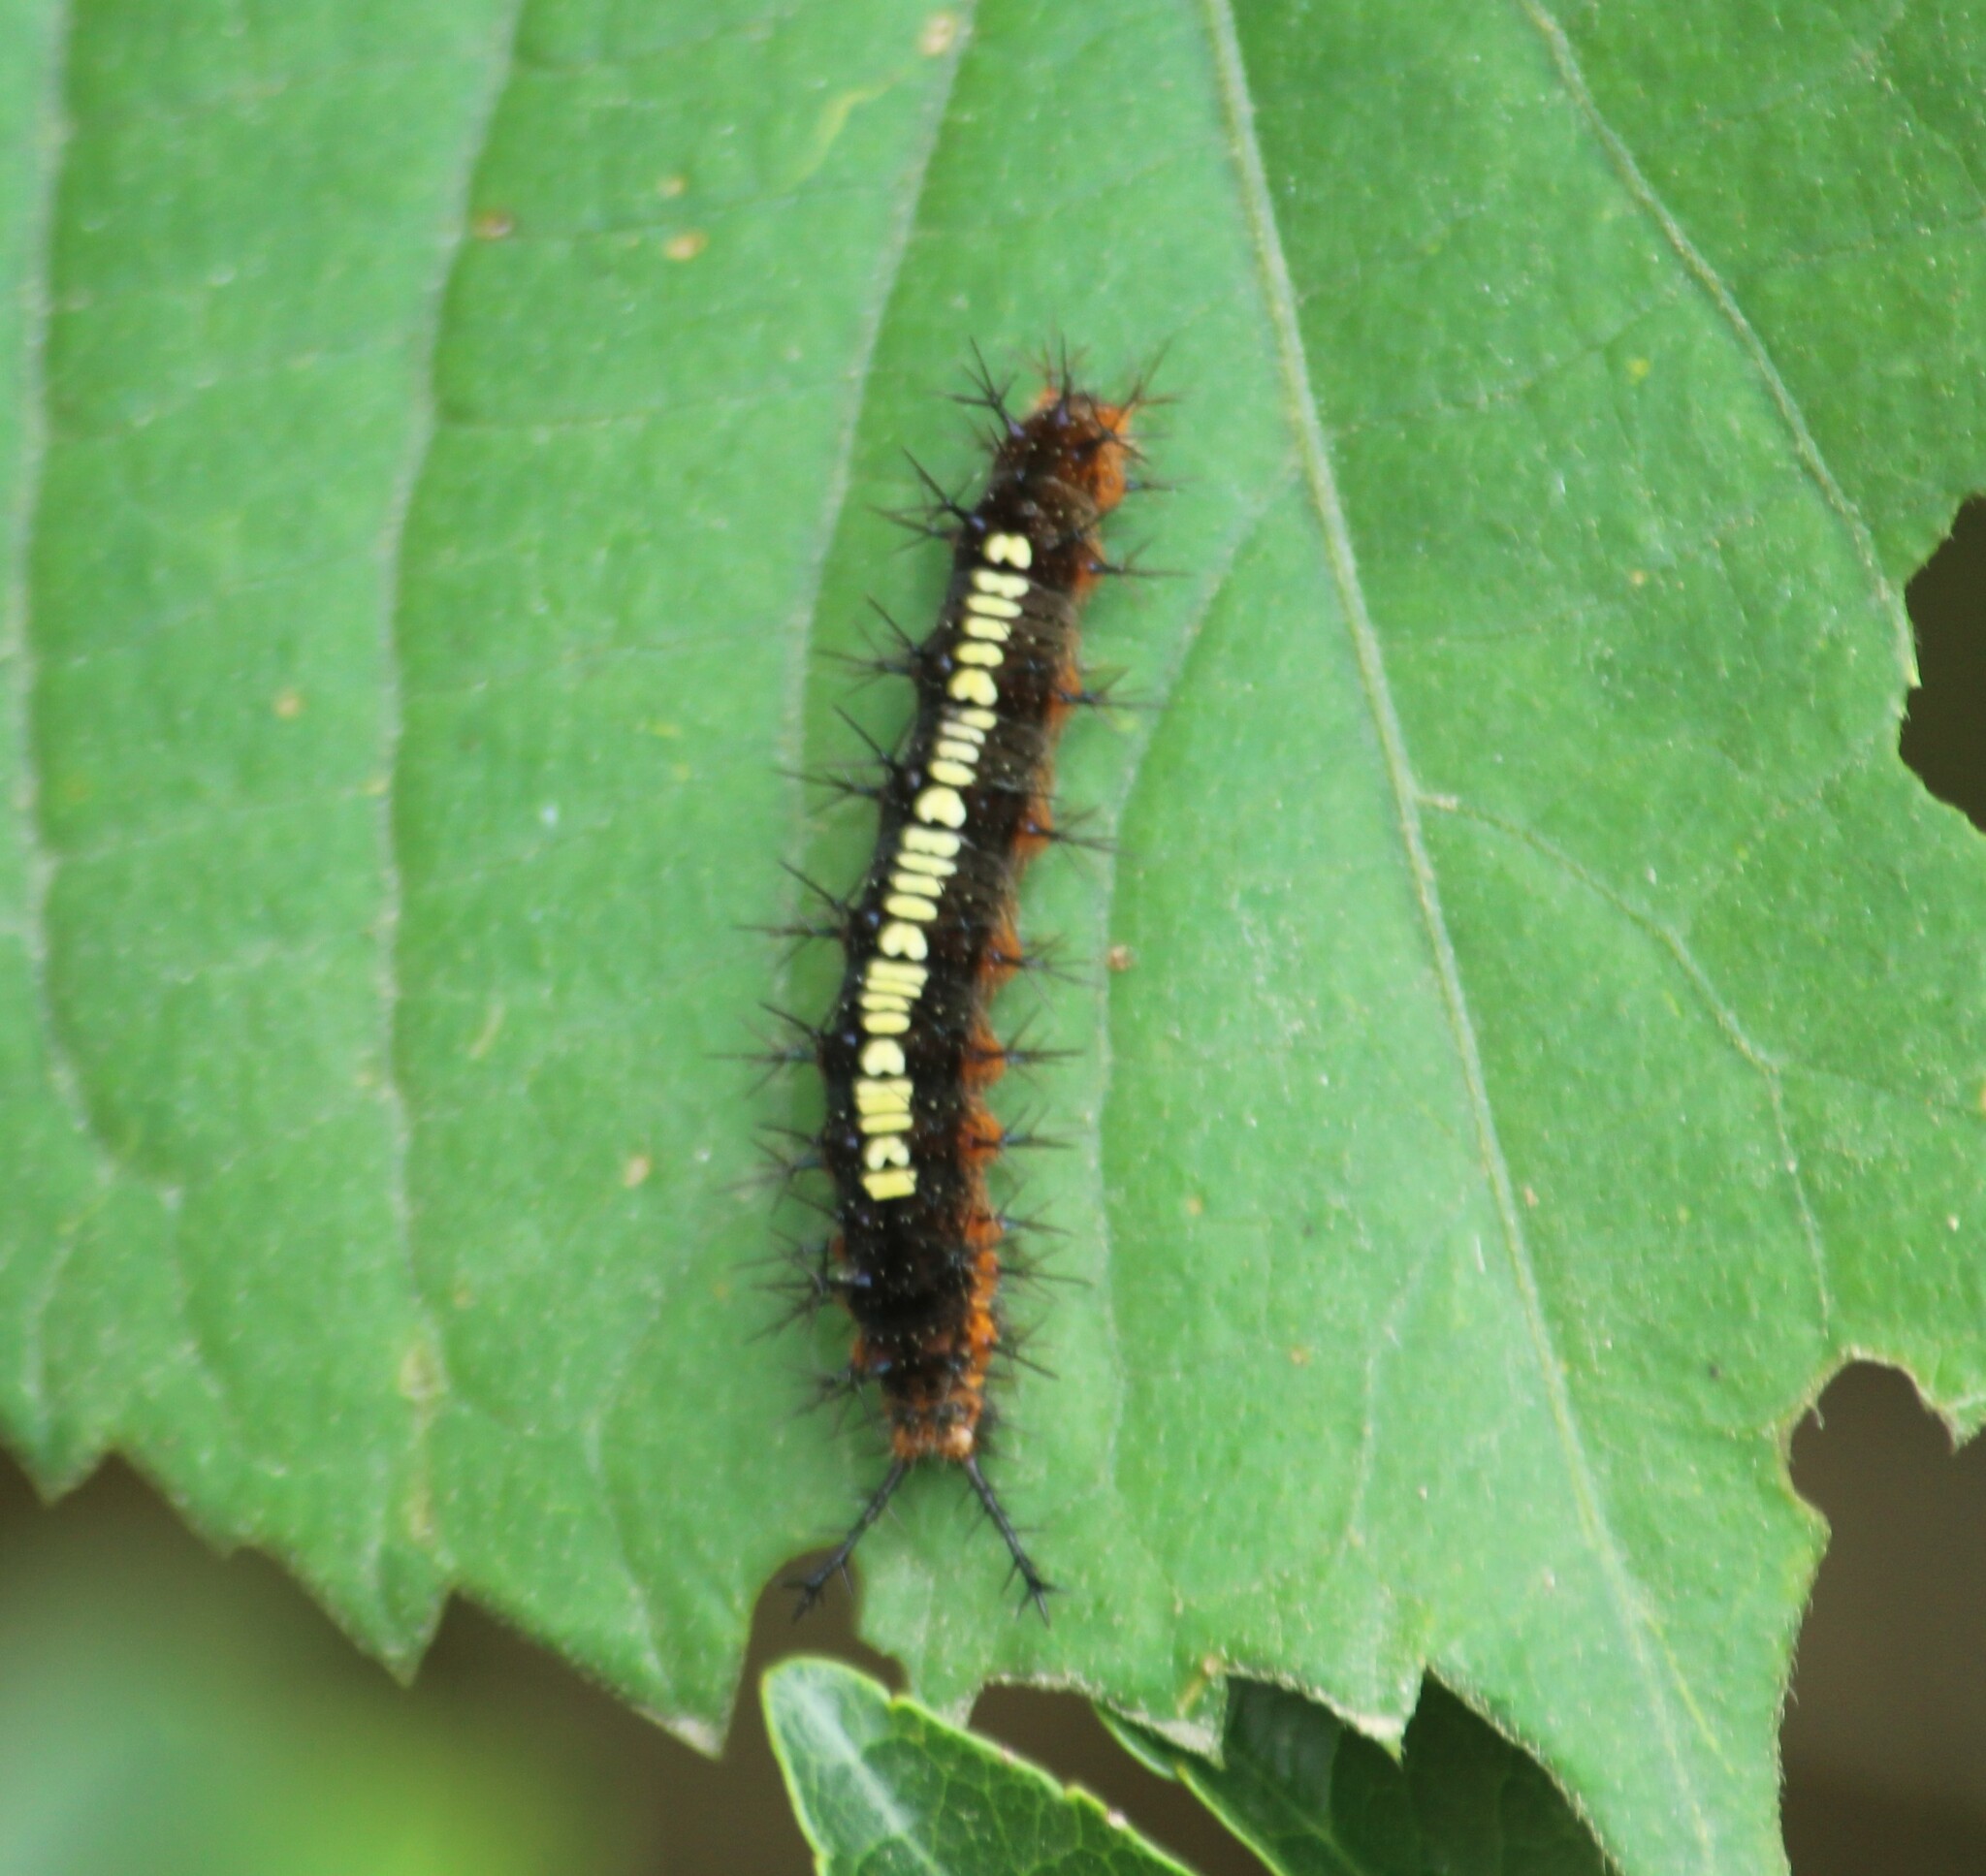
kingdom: Animalia
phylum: Arthropoda
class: Insecta
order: Lepidoptera
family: Nymphalidae
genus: Ariadne
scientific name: Ariadne ariadne
